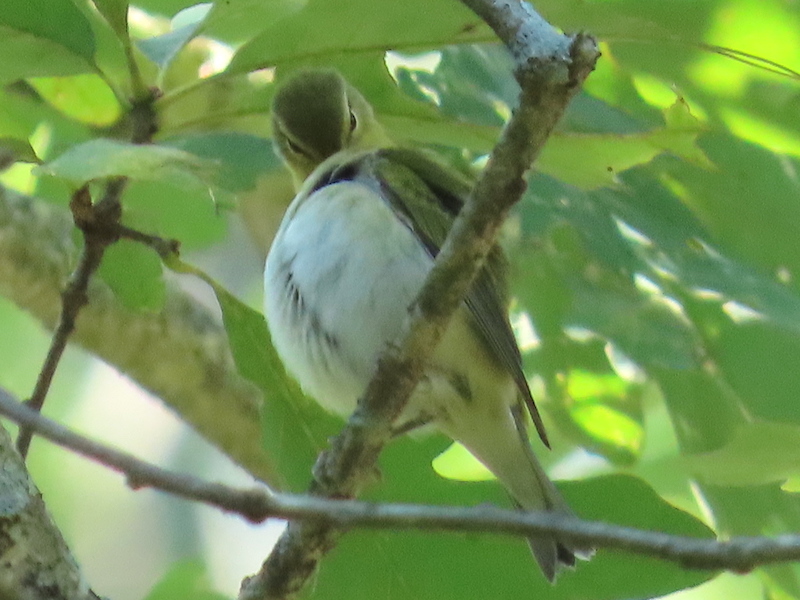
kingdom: Animalia
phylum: Chordata
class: Aves
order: Passeriformes
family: Parulidae
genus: Leiothlypis
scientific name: Leiothlypis peregrina
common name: Tennessee warbler
